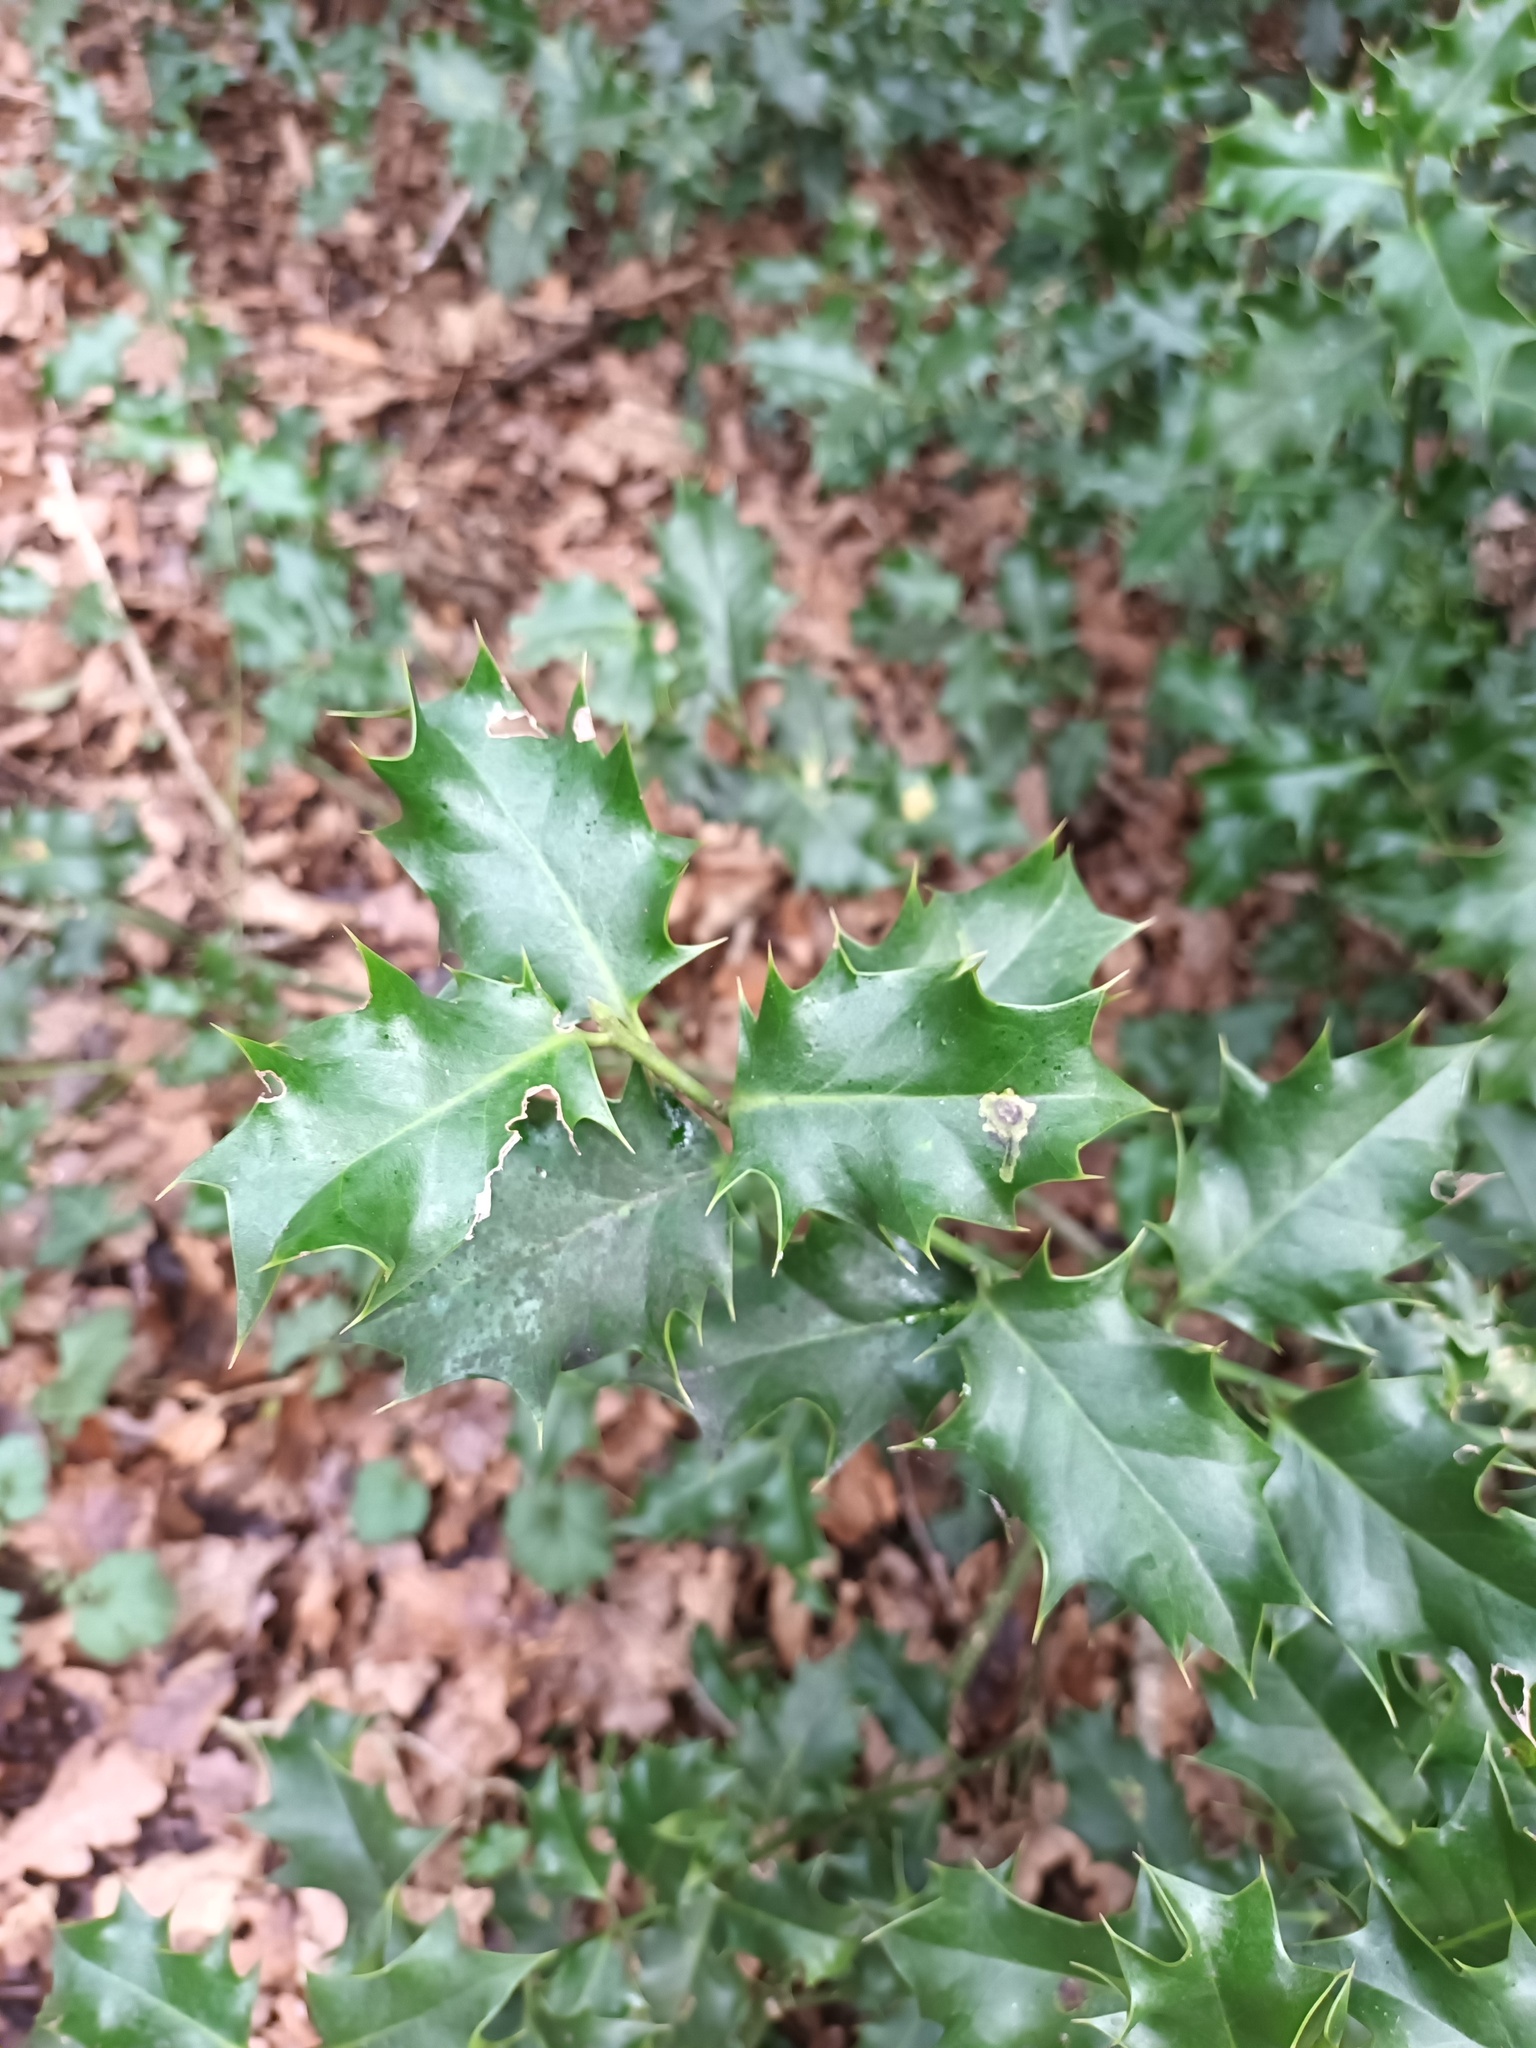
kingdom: Plantae
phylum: Tracheophyta
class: Magnoliopsida
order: Aquifoliales
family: Aquifoliaceae
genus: Ilex
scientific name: Ilex aquifolium
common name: English holly
